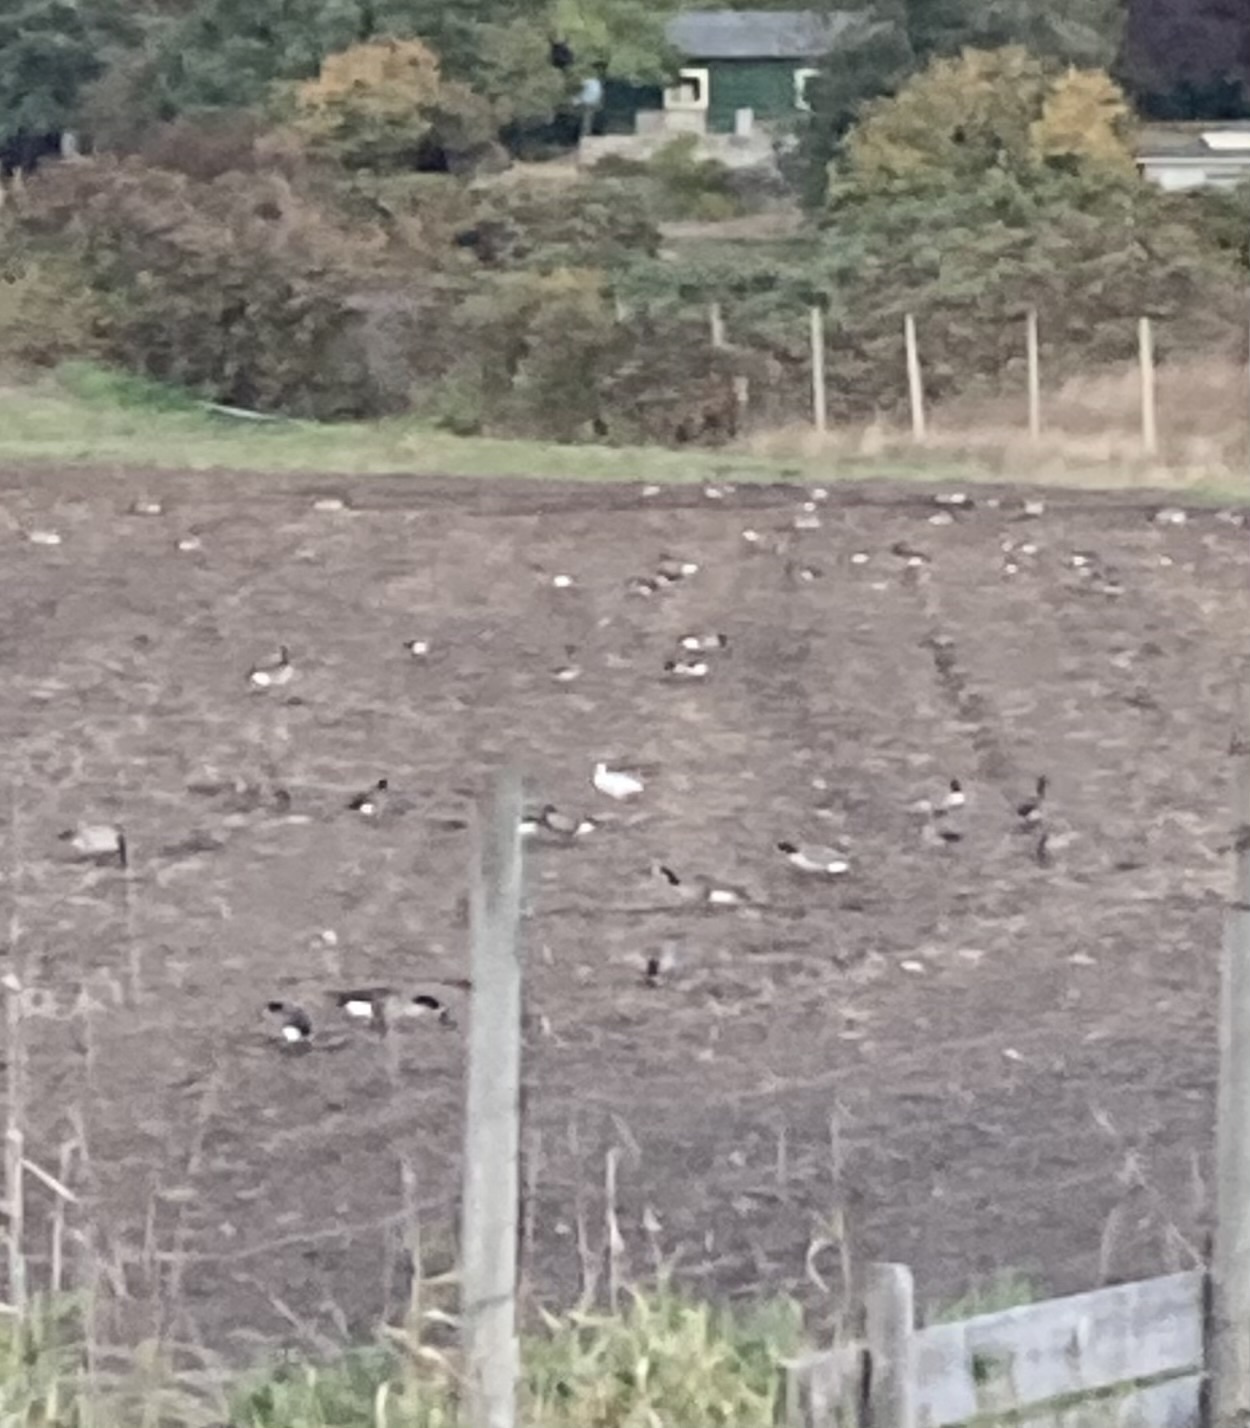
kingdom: Animalia
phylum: Chordata
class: Aves
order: Anseriformes
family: Anatidae
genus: Anser
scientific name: Anser caerulescens
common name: Snow goose
